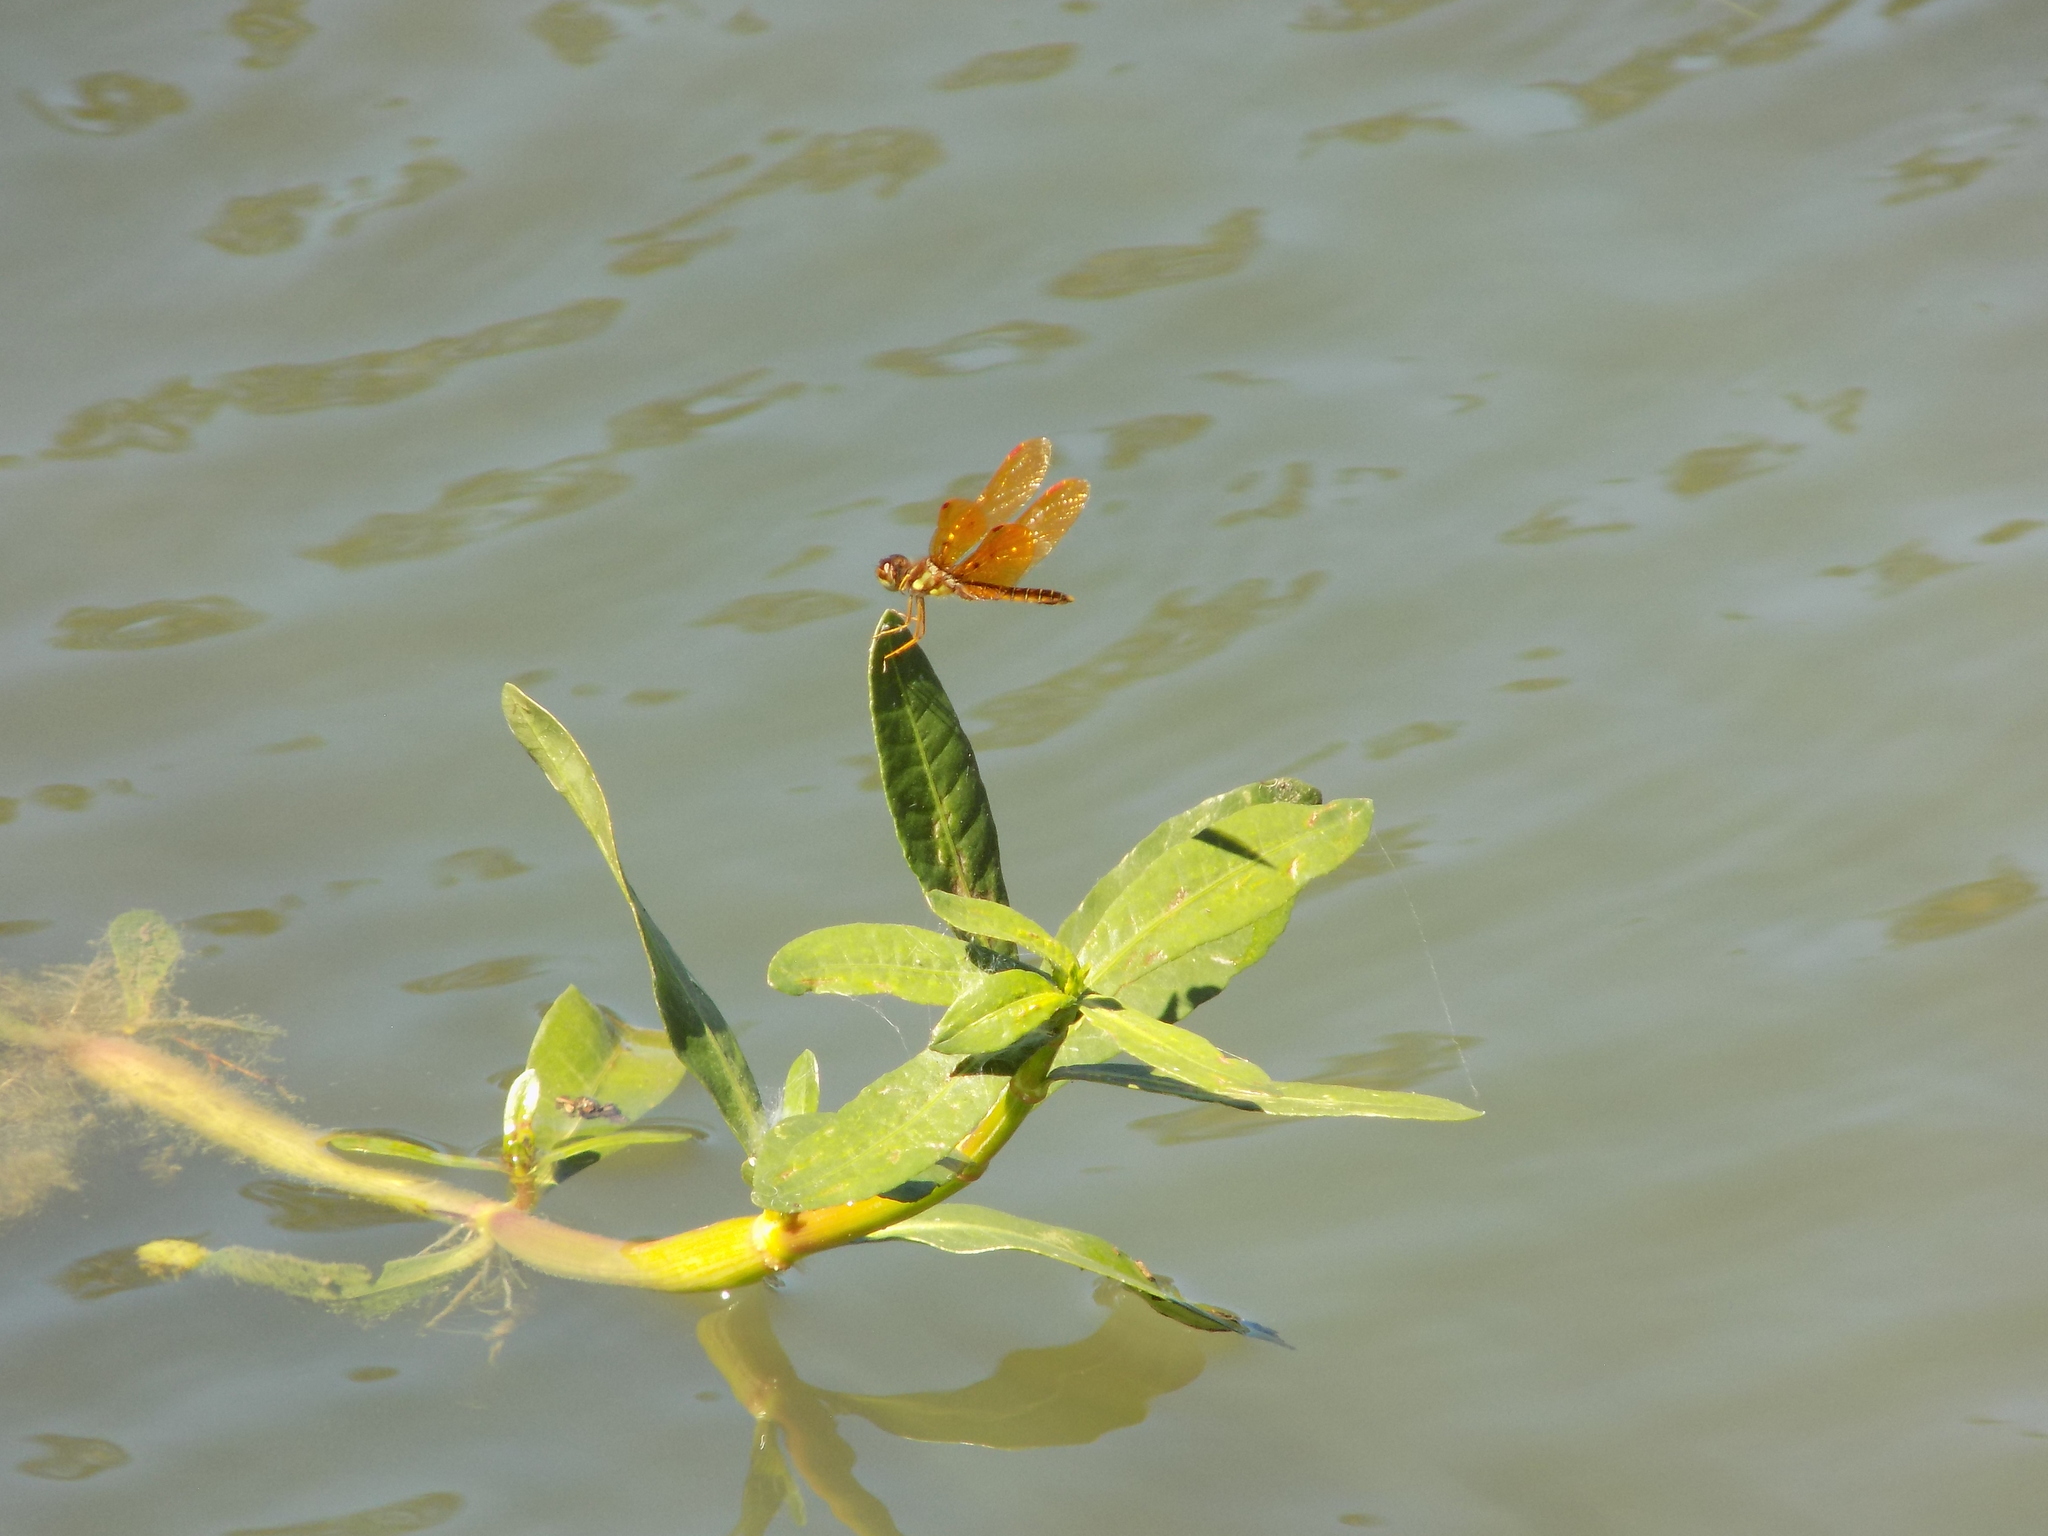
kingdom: Animalia
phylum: Arthropoda
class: Insecta
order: Odonata
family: Libellulidae
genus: Perithemis
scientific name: Perithemis tenera
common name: Eastern amberwing
